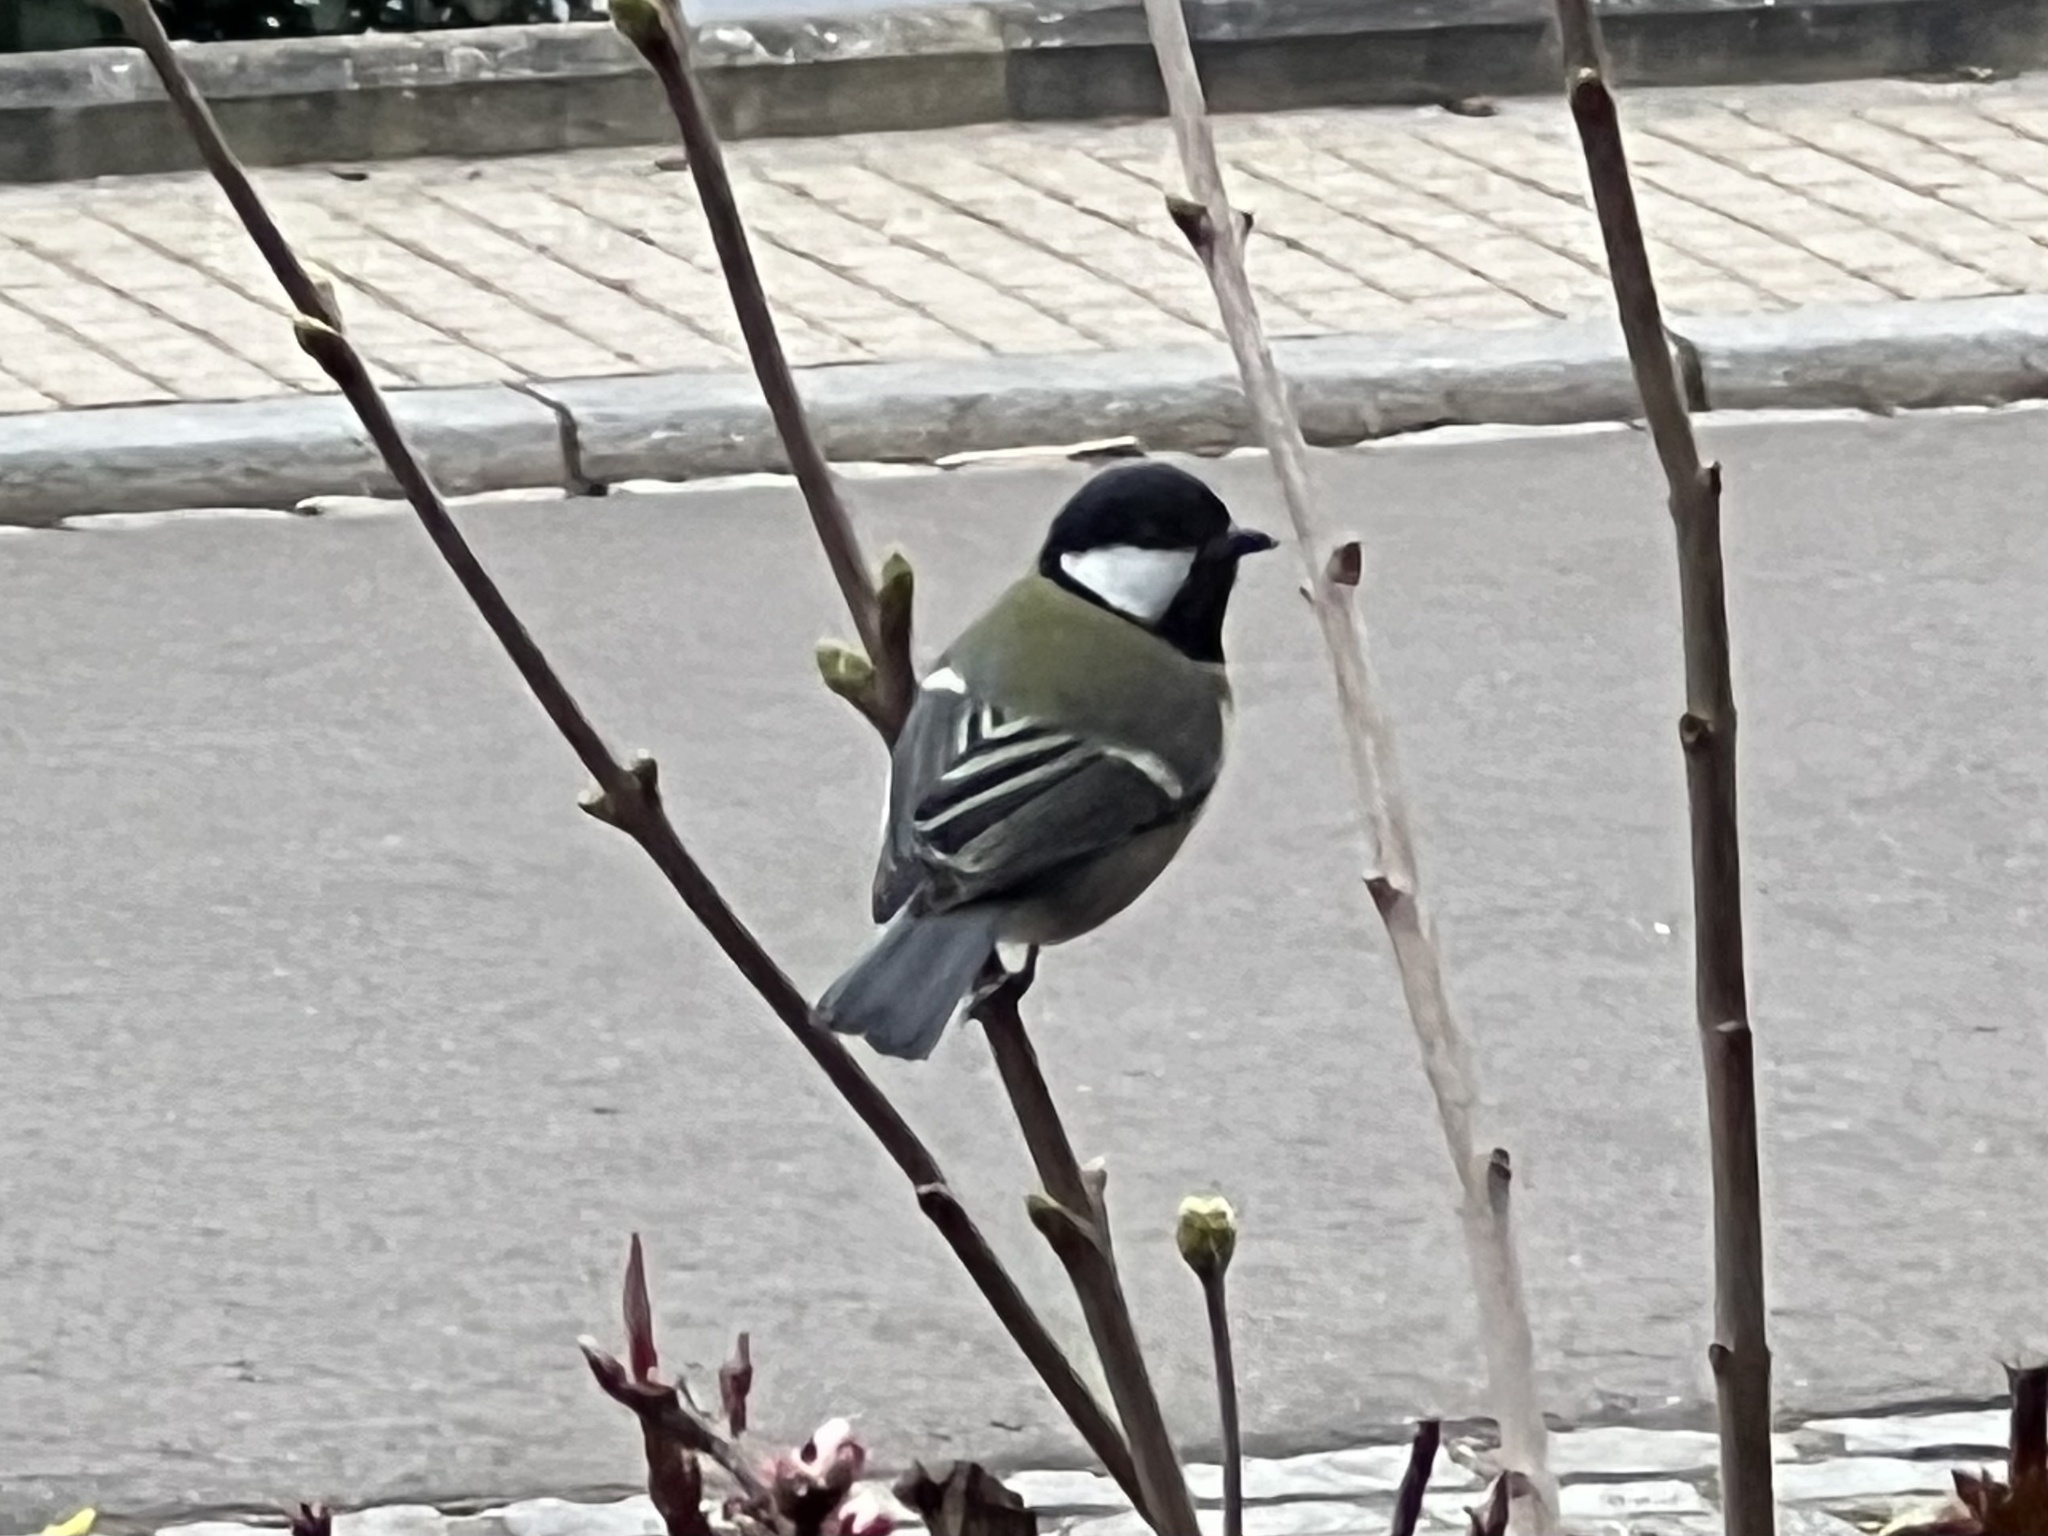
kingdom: Animalia
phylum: Chordata
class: Aves
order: Passeriformes
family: Paridae
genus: Parus
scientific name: Parus major
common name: Great tit
